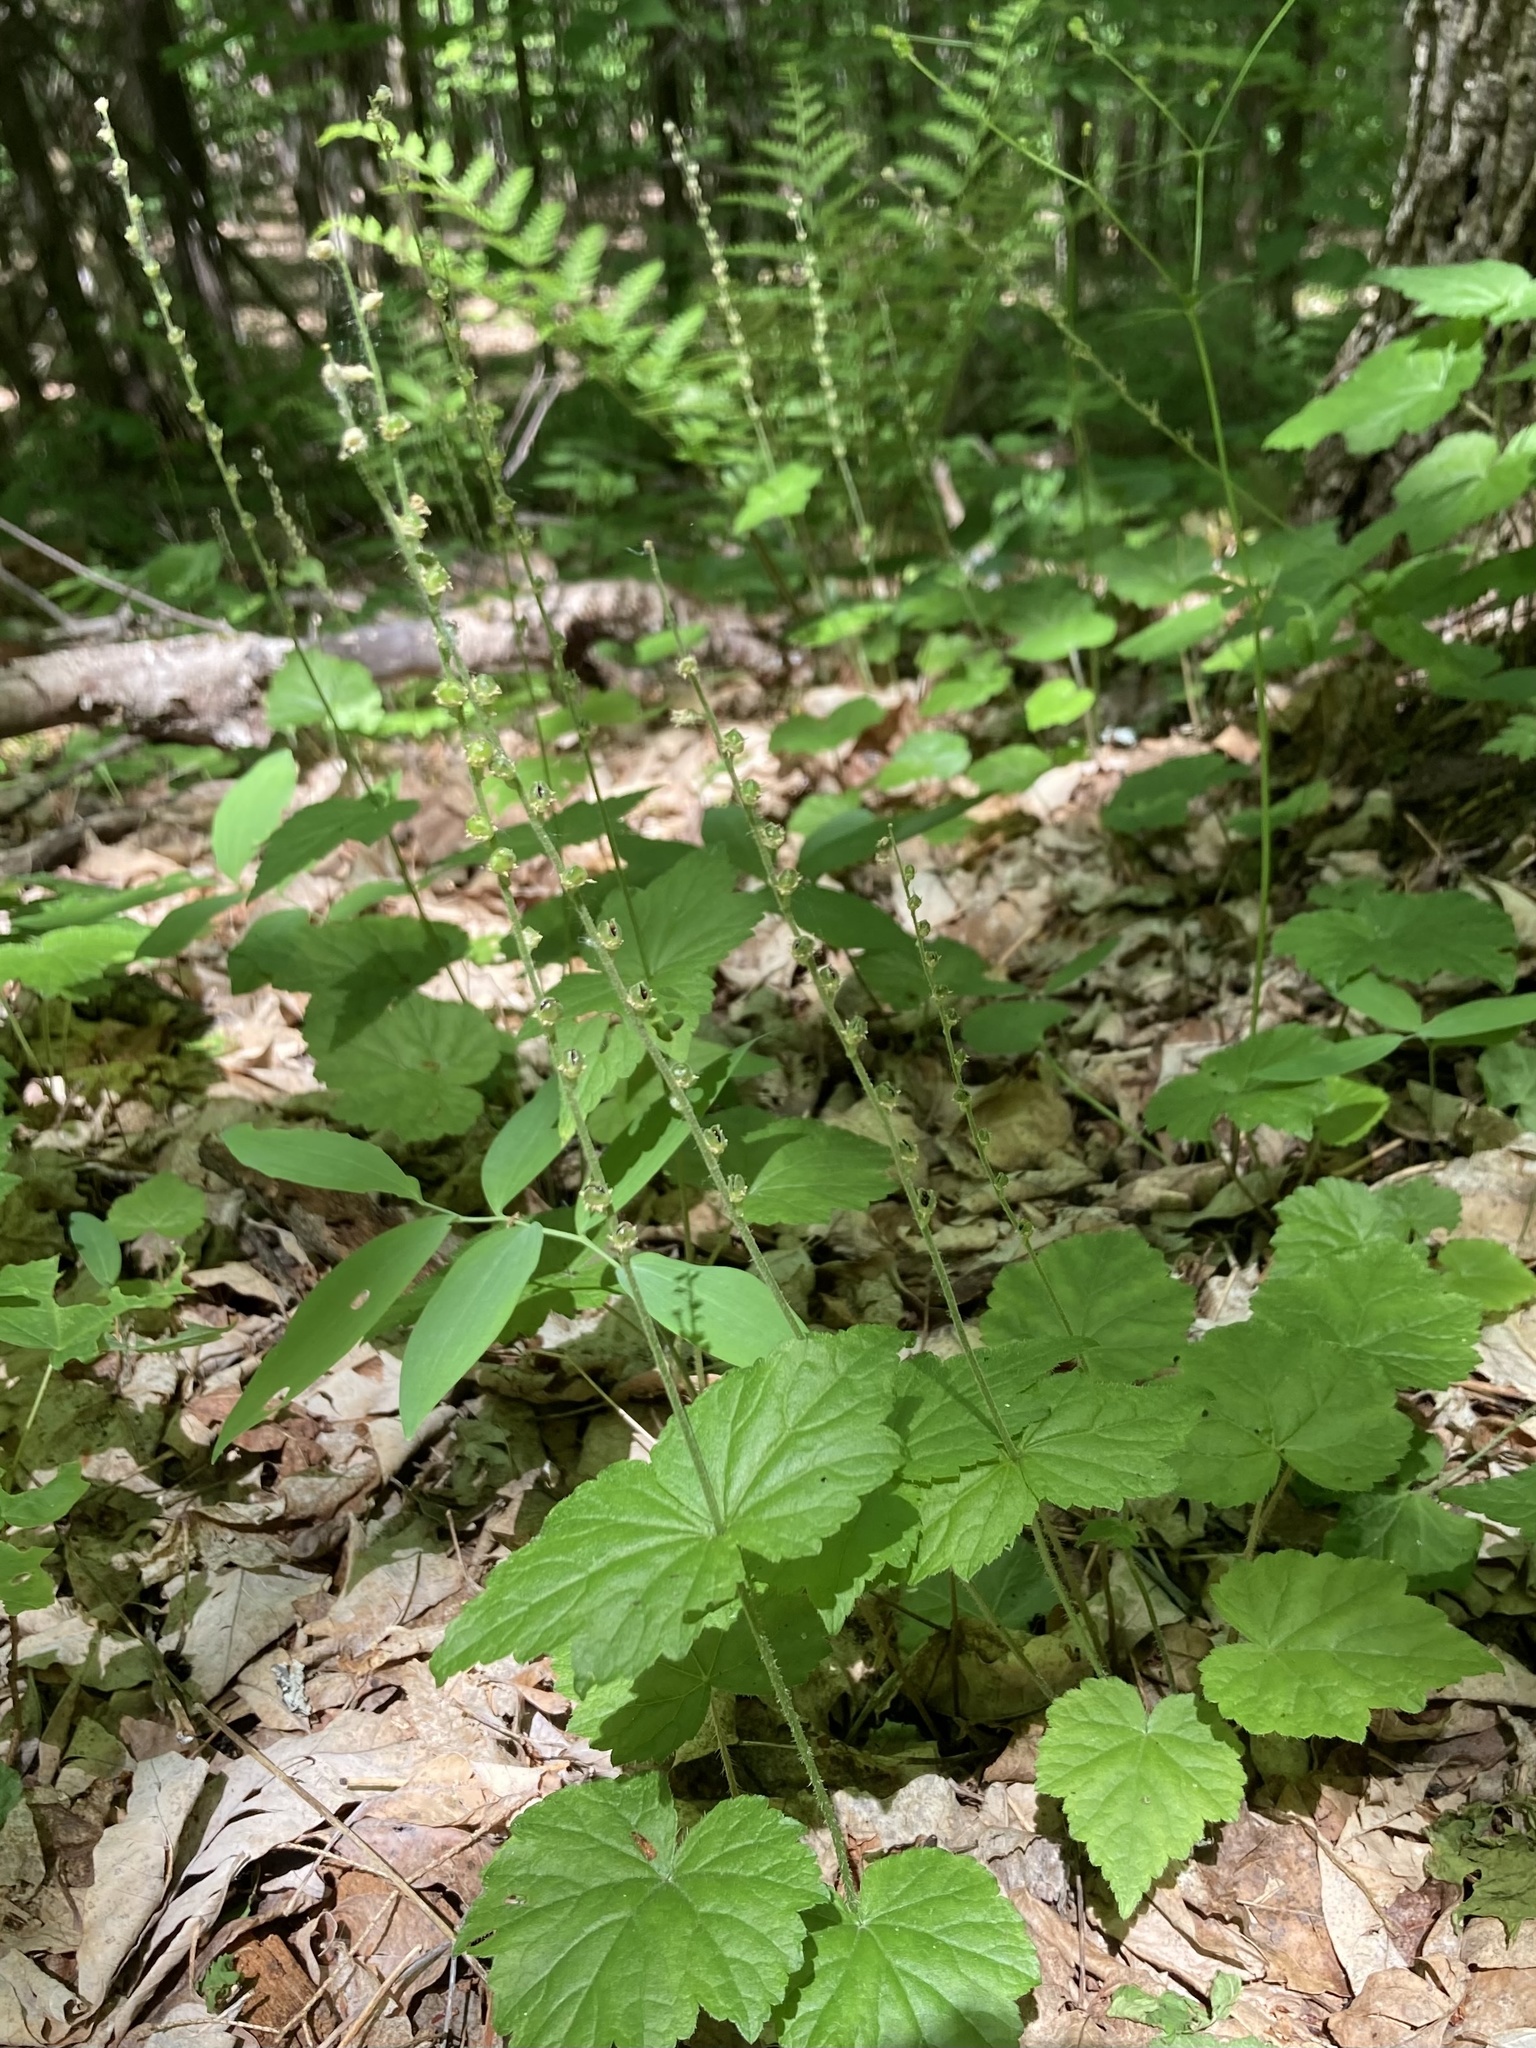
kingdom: Plantae
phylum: Tracheophyta
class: Magnoliopsida
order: Saxifragales
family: Saxifragaceae
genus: Mitella
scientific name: Mitella diphylla
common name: Coolwort
